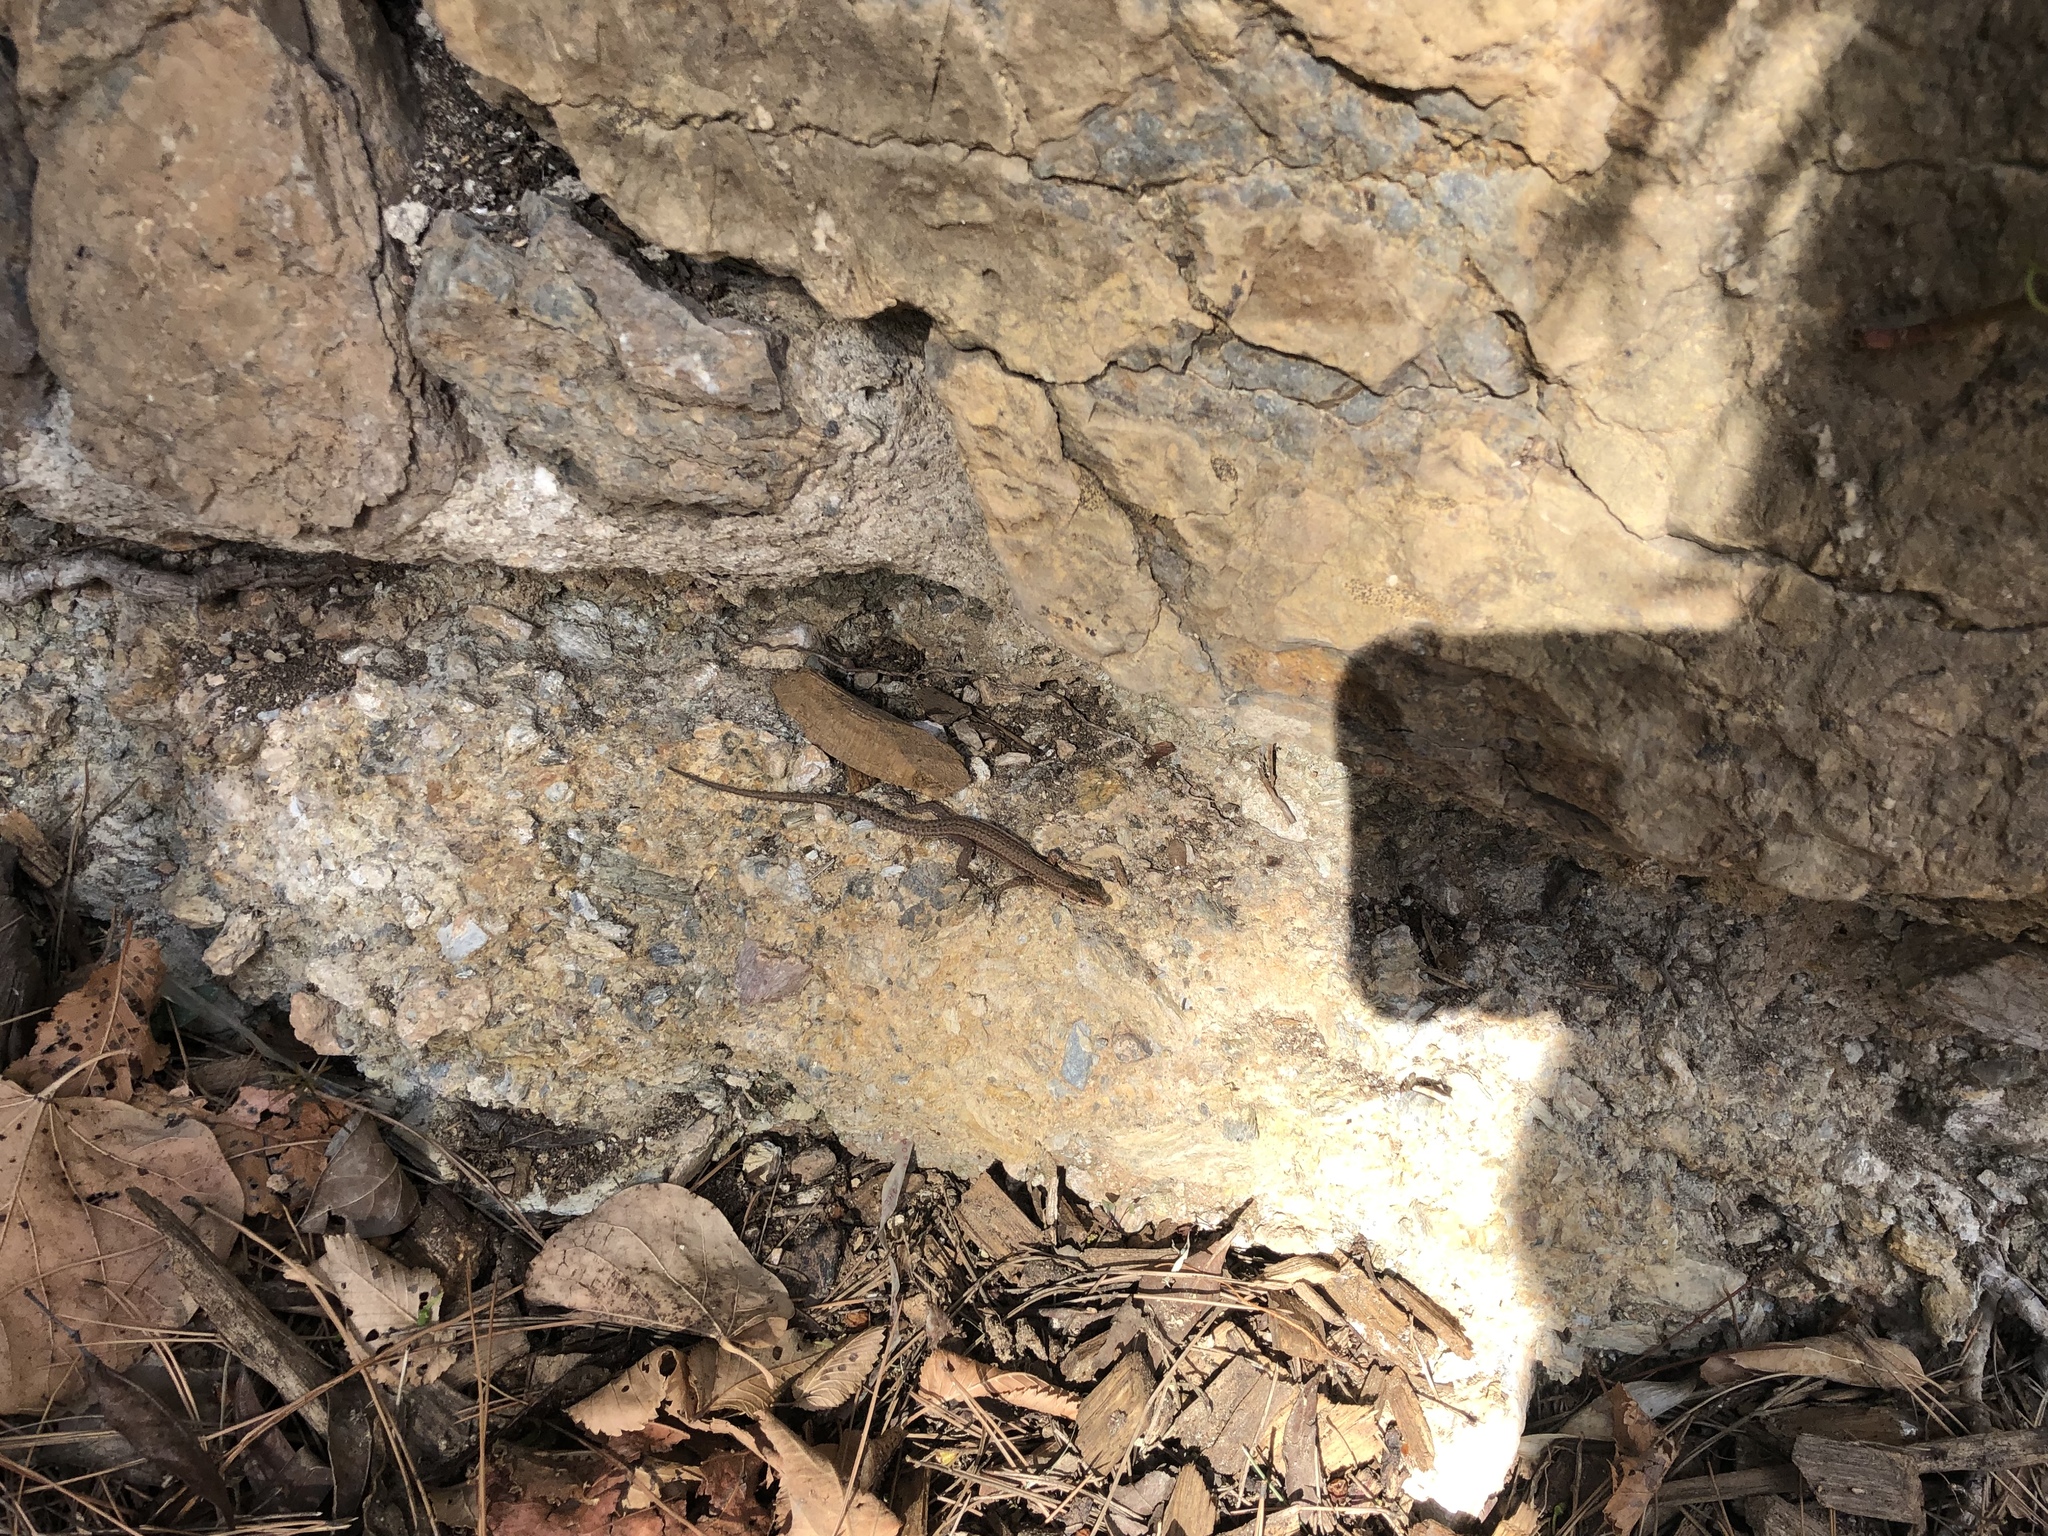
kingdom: Animalia
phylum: Chordata
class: Squamata
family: Lacertidae
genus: Podarcis
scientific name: Podarcis liolepis
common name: Catalonian wall lizard
